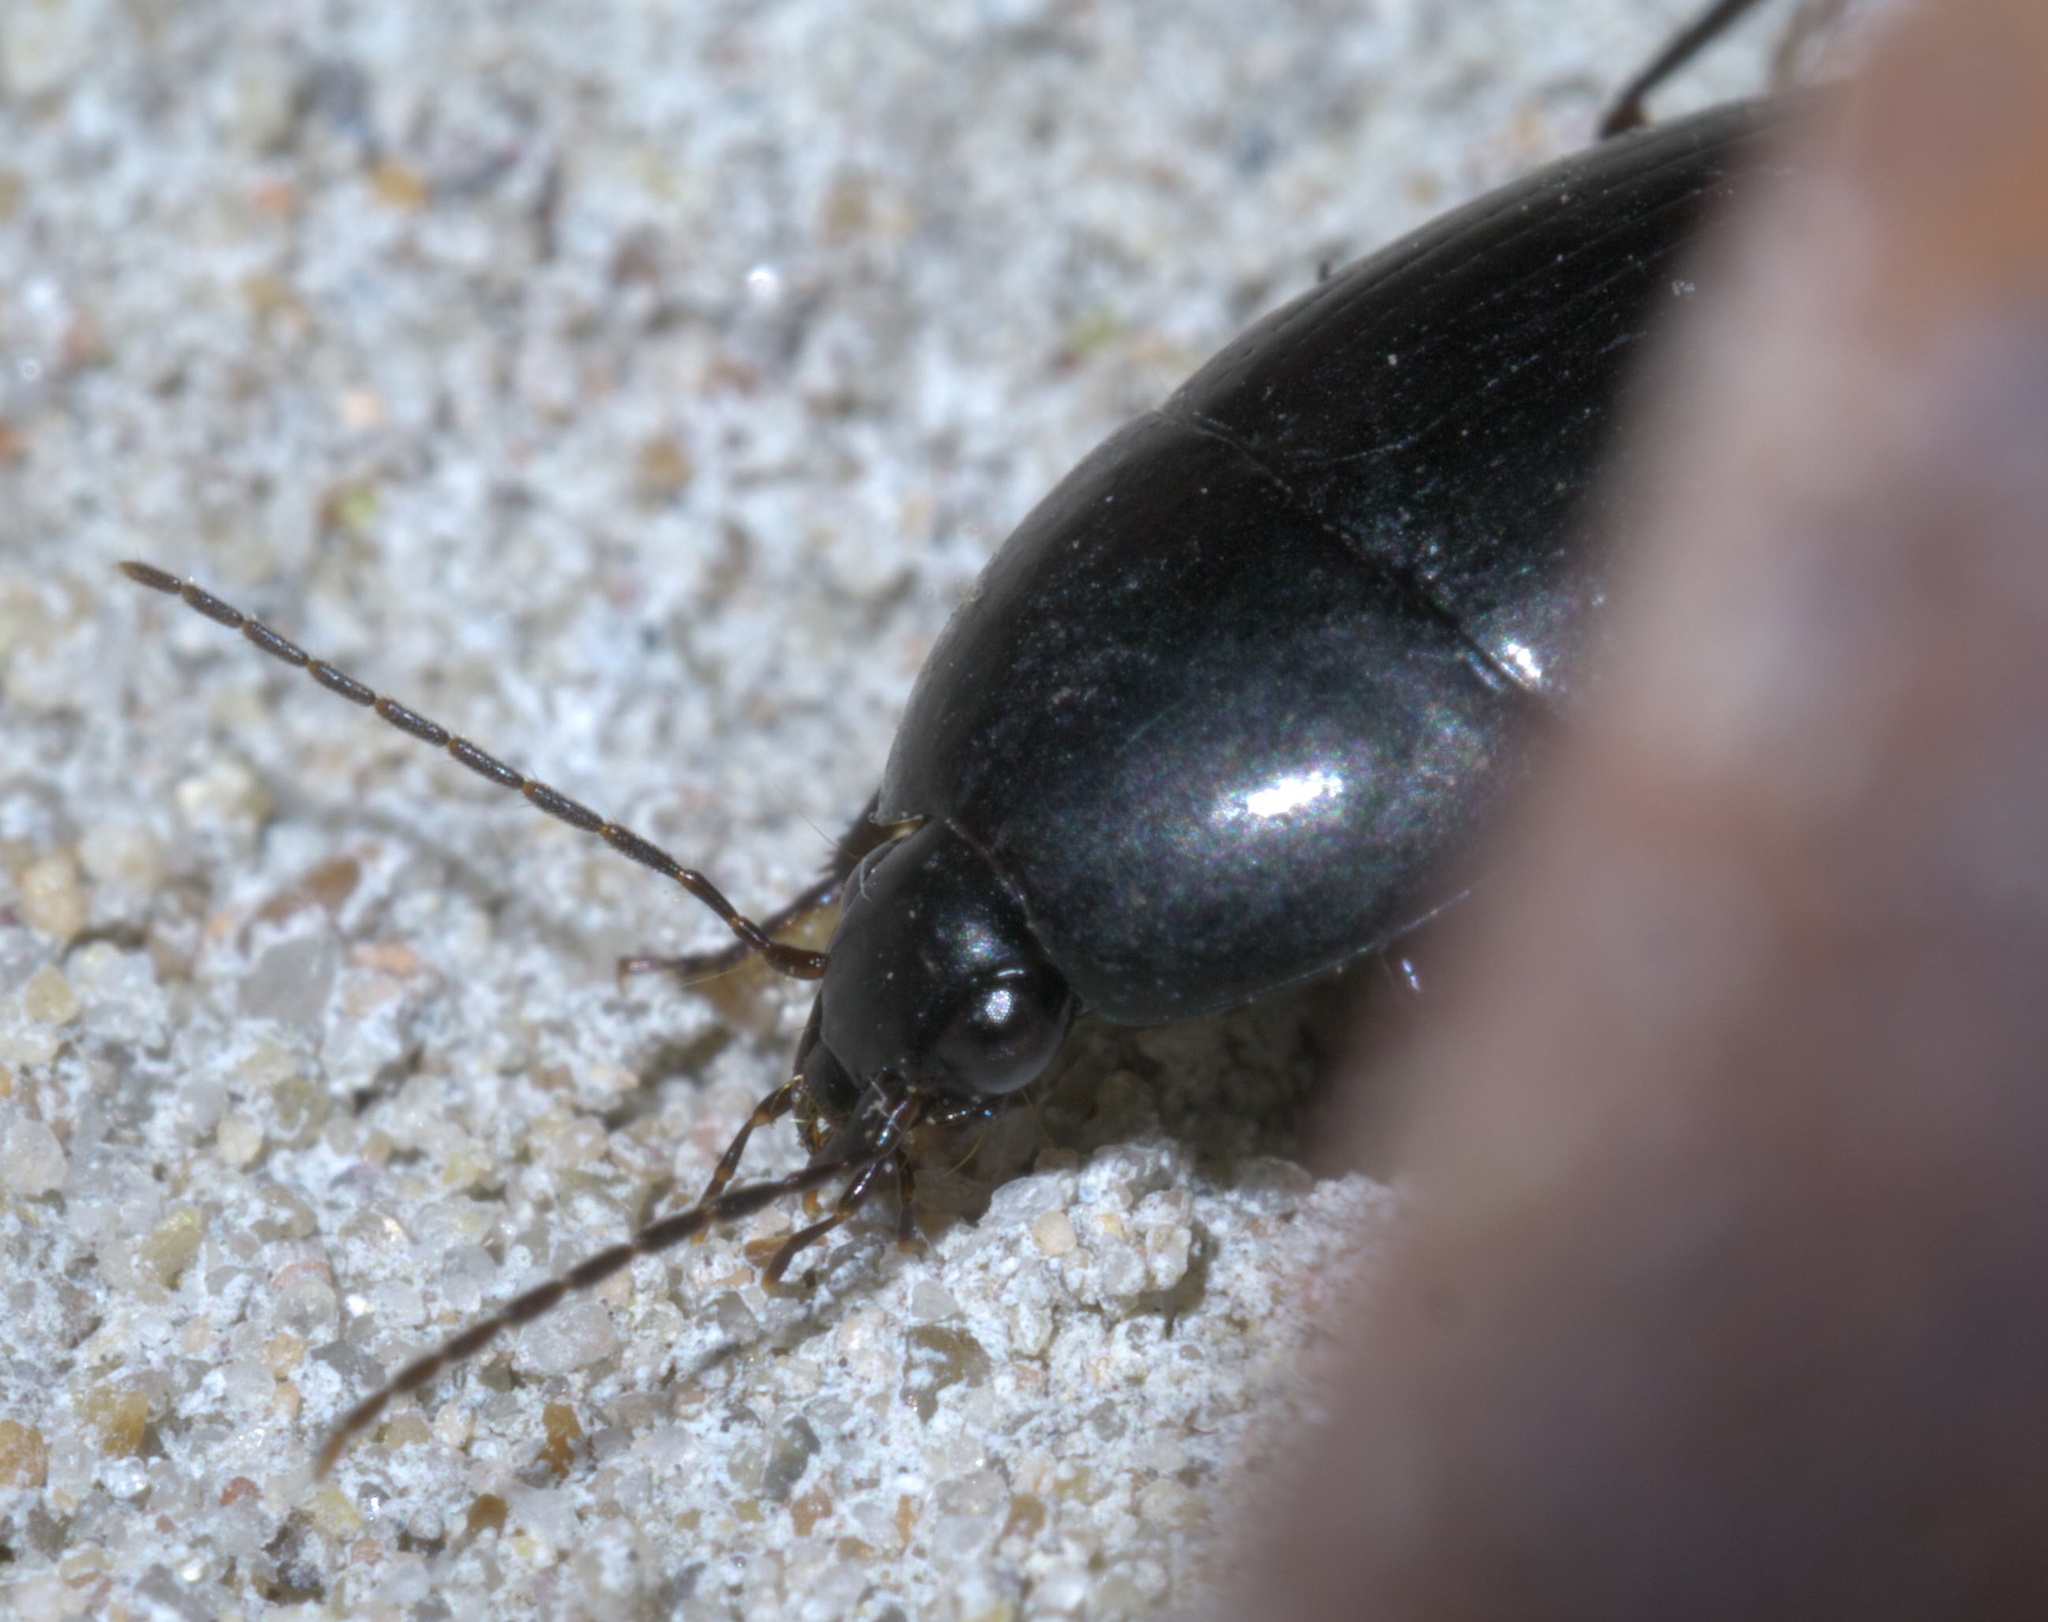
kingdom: Animalia
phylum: Arthropoda
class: Insecta
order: Coleoptera
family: Carabidae
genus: Oodes
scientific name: Oodes amaroides
